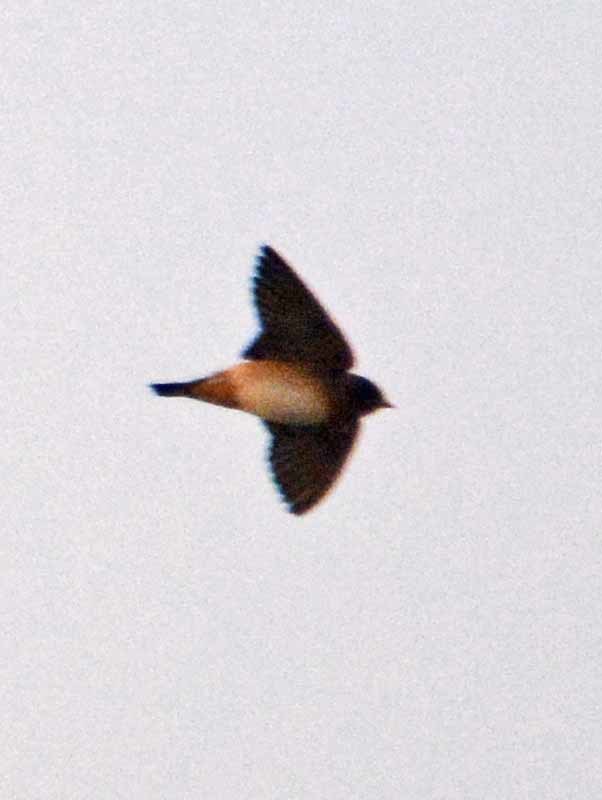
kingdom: Animalia
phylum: Chordata
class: Aves
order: Passeriformes
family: Hirundinidae
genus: Petrochelidon
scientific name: Petrochelidon pyrrhonota
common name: American cliff swallow
